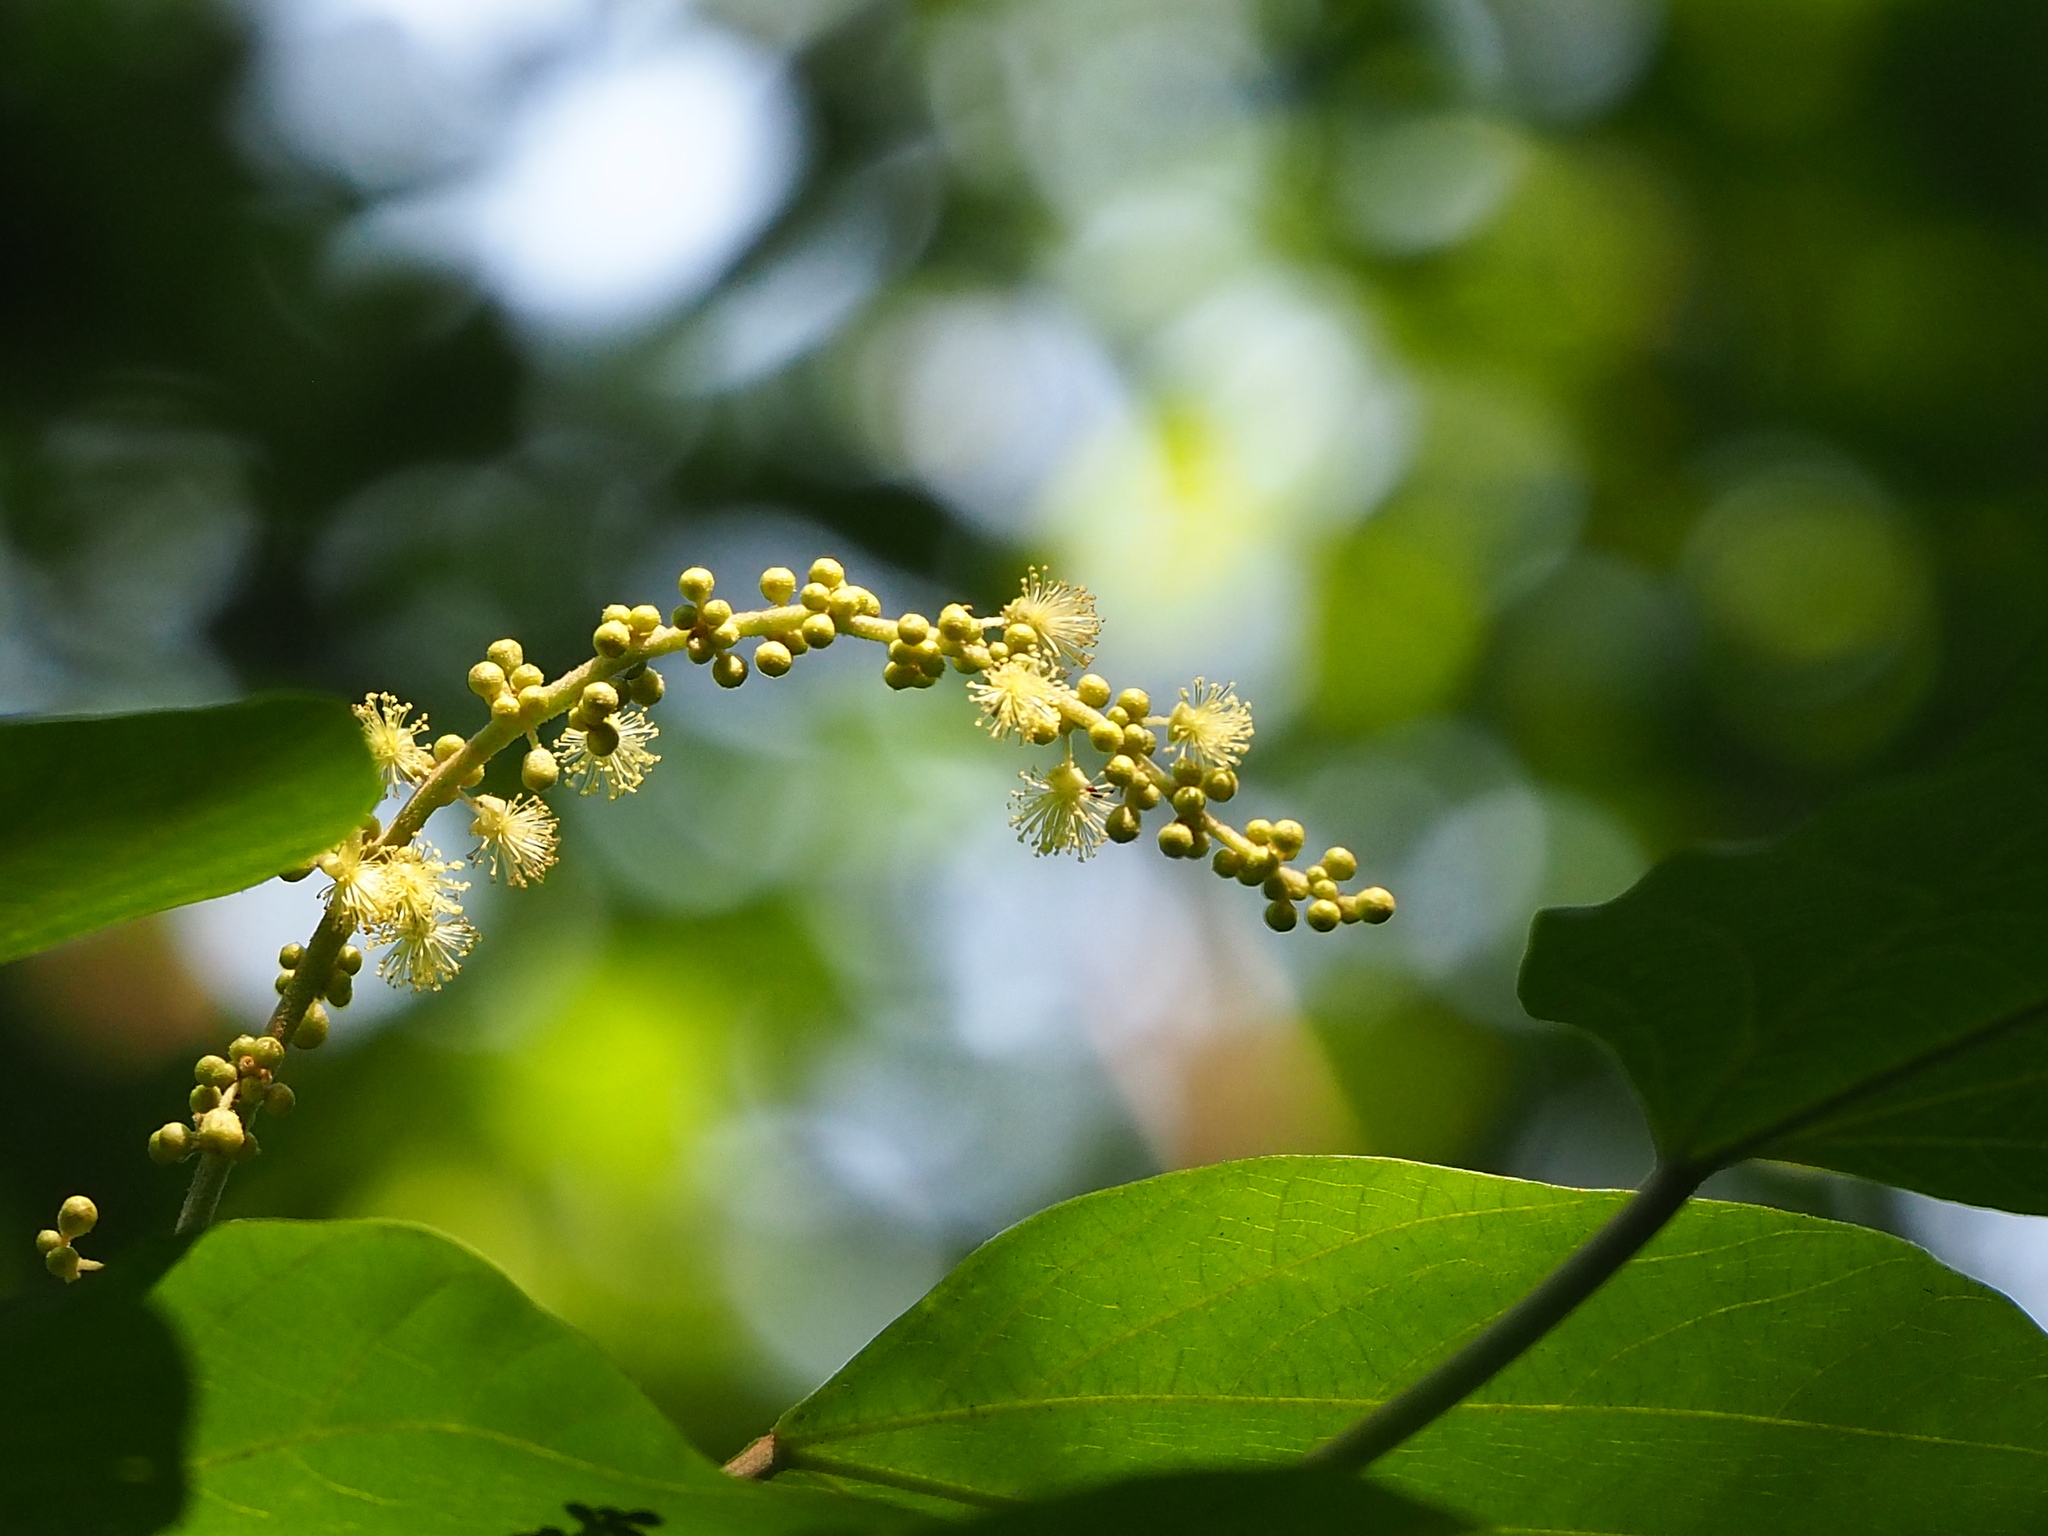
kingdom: Plantae
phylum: Tracheophyta
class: Magnoliopsida
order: Malpighiales
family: Euphorbiaceae
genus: Mallotus
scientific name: Mallotus japonicus
